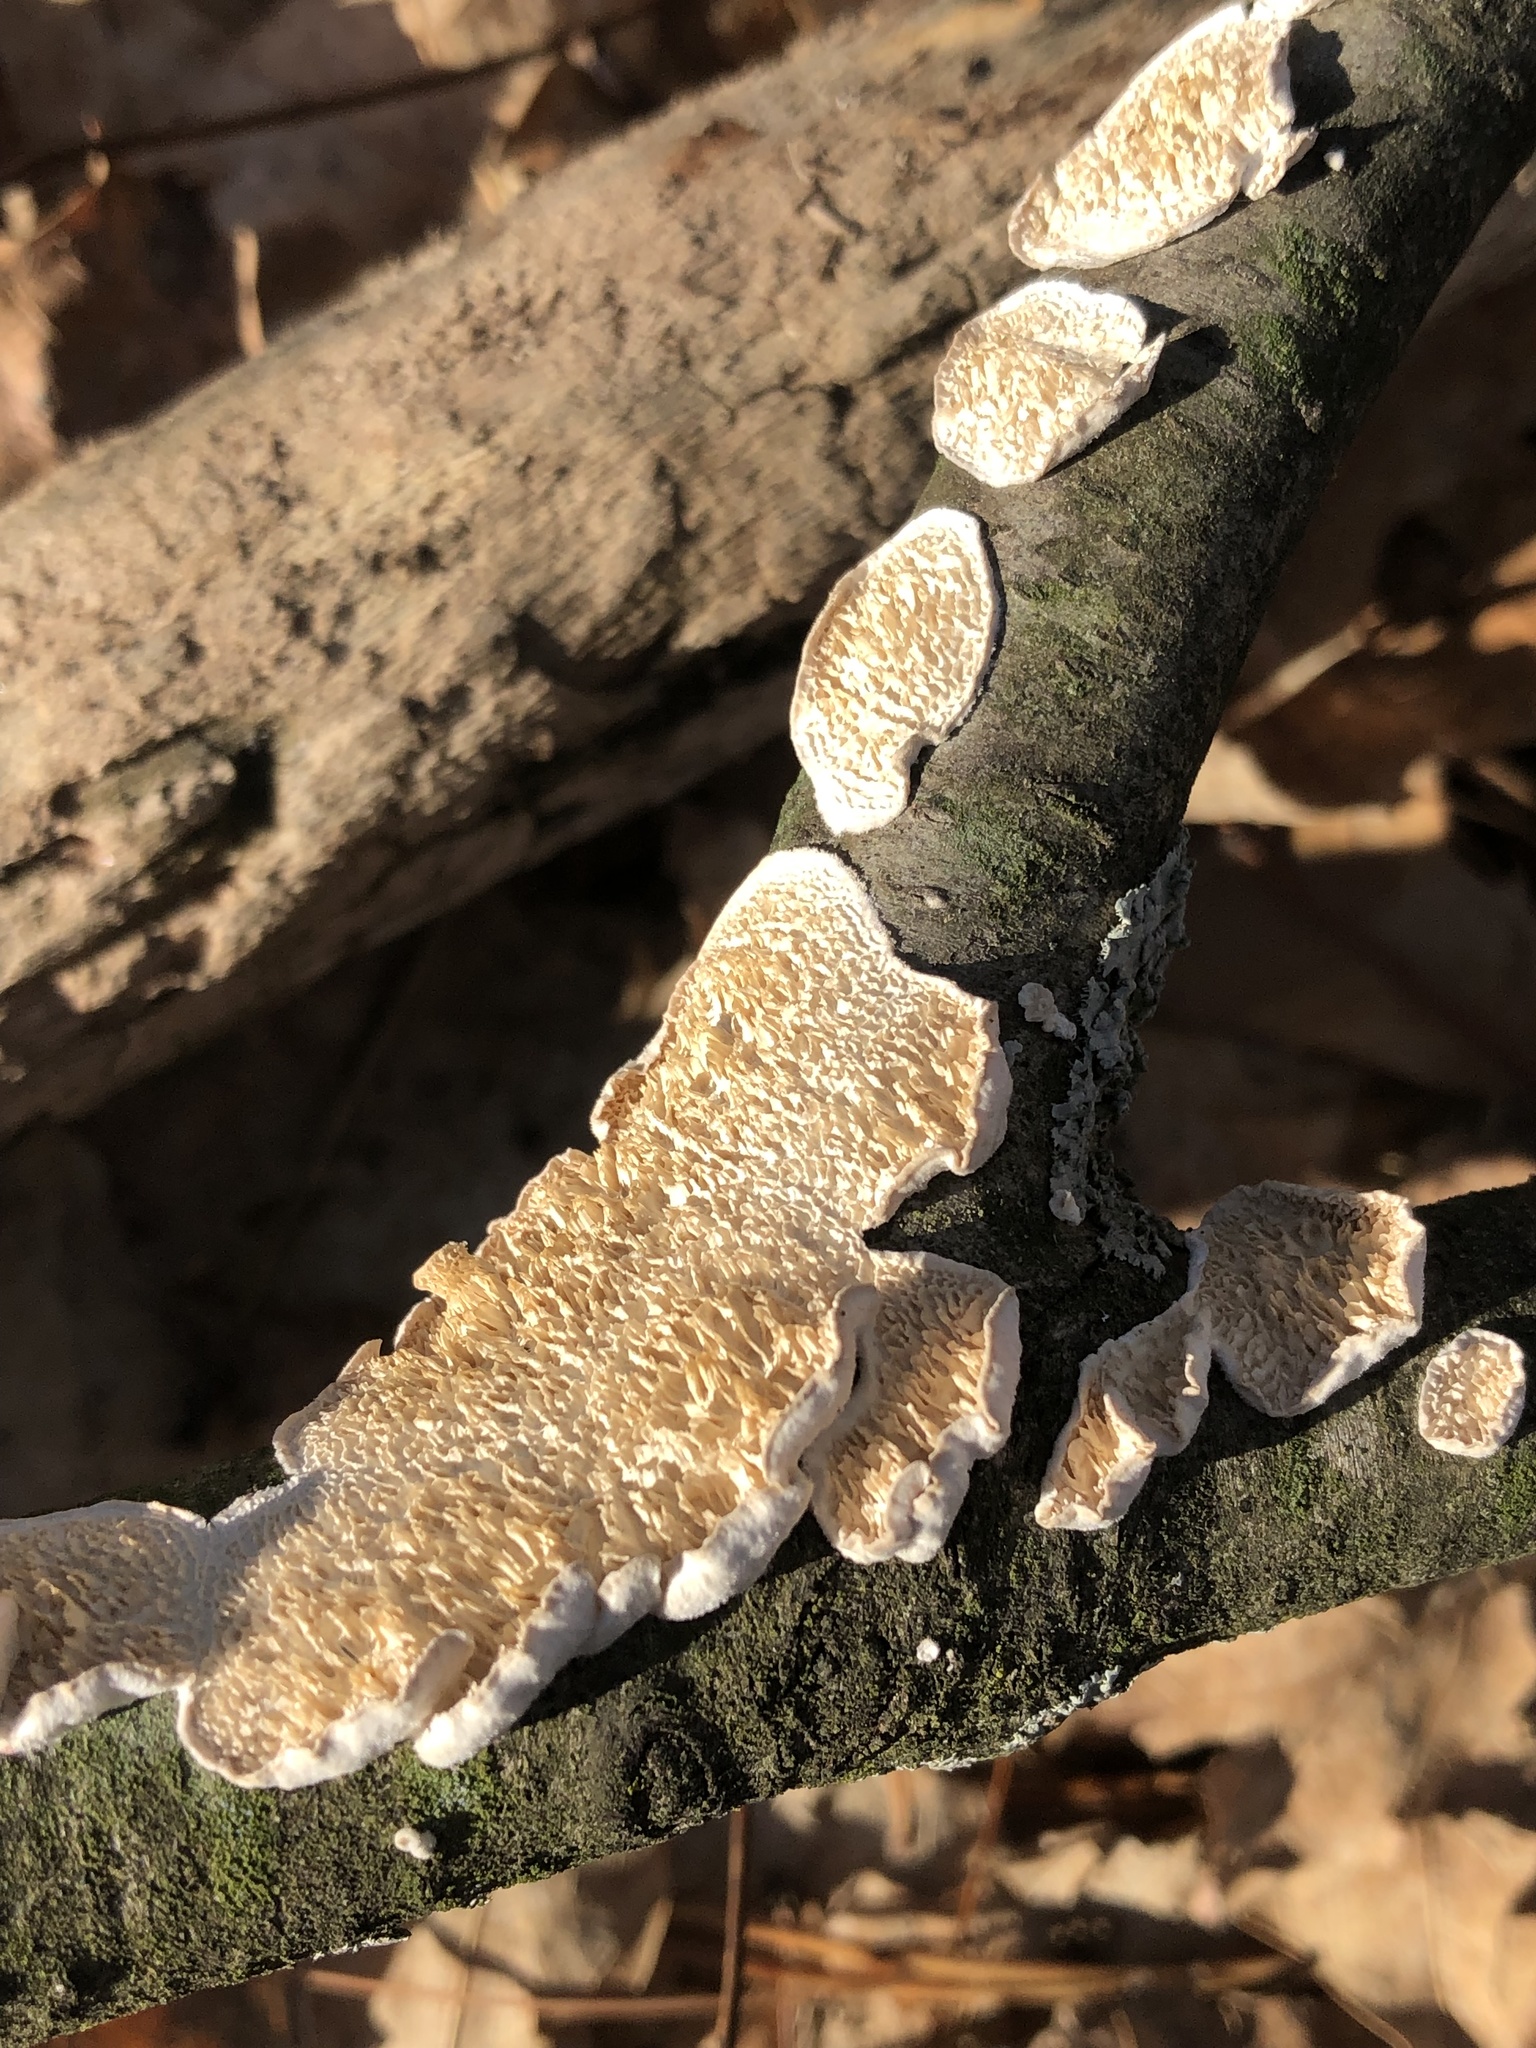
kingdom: Fungi
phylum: Basidiomycota
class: Agaricomycetes
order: Polyporales
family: Irpicaceae
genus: Irpex
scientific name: Irpex lacteus
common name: Milk-white toothed polypore
